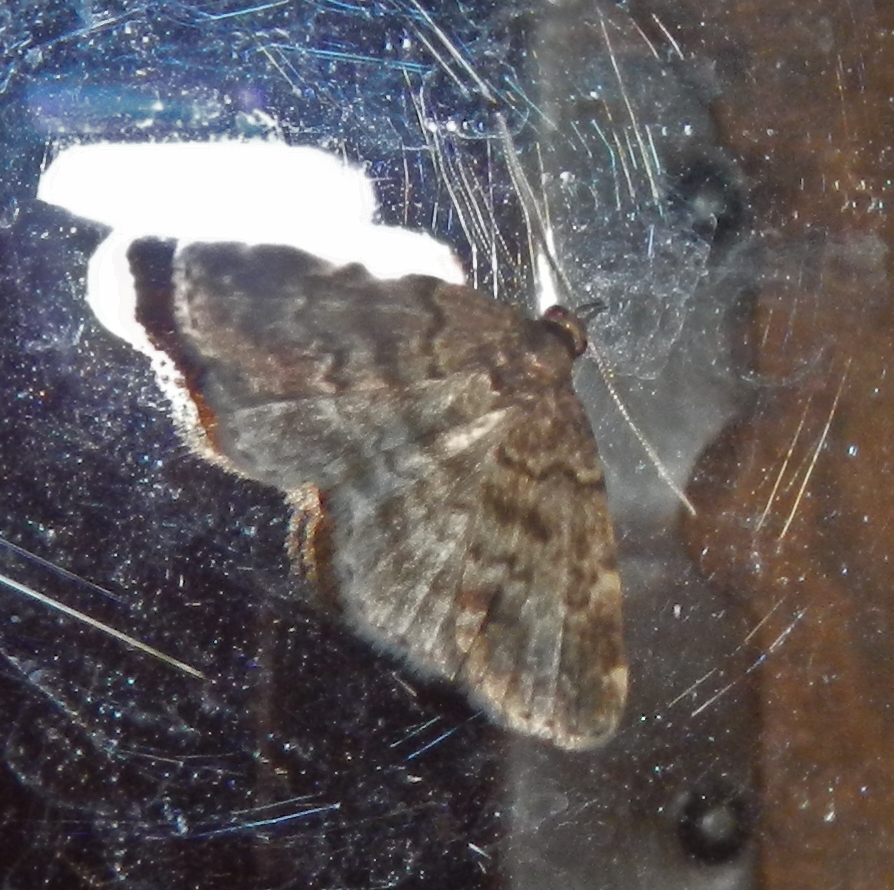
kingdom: Animalia
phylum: Arthropoda
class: Insecta
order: Lepidoptera
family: Erebidae
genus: Idia
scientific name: Idia forbesii
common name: Forbes' idia moth
